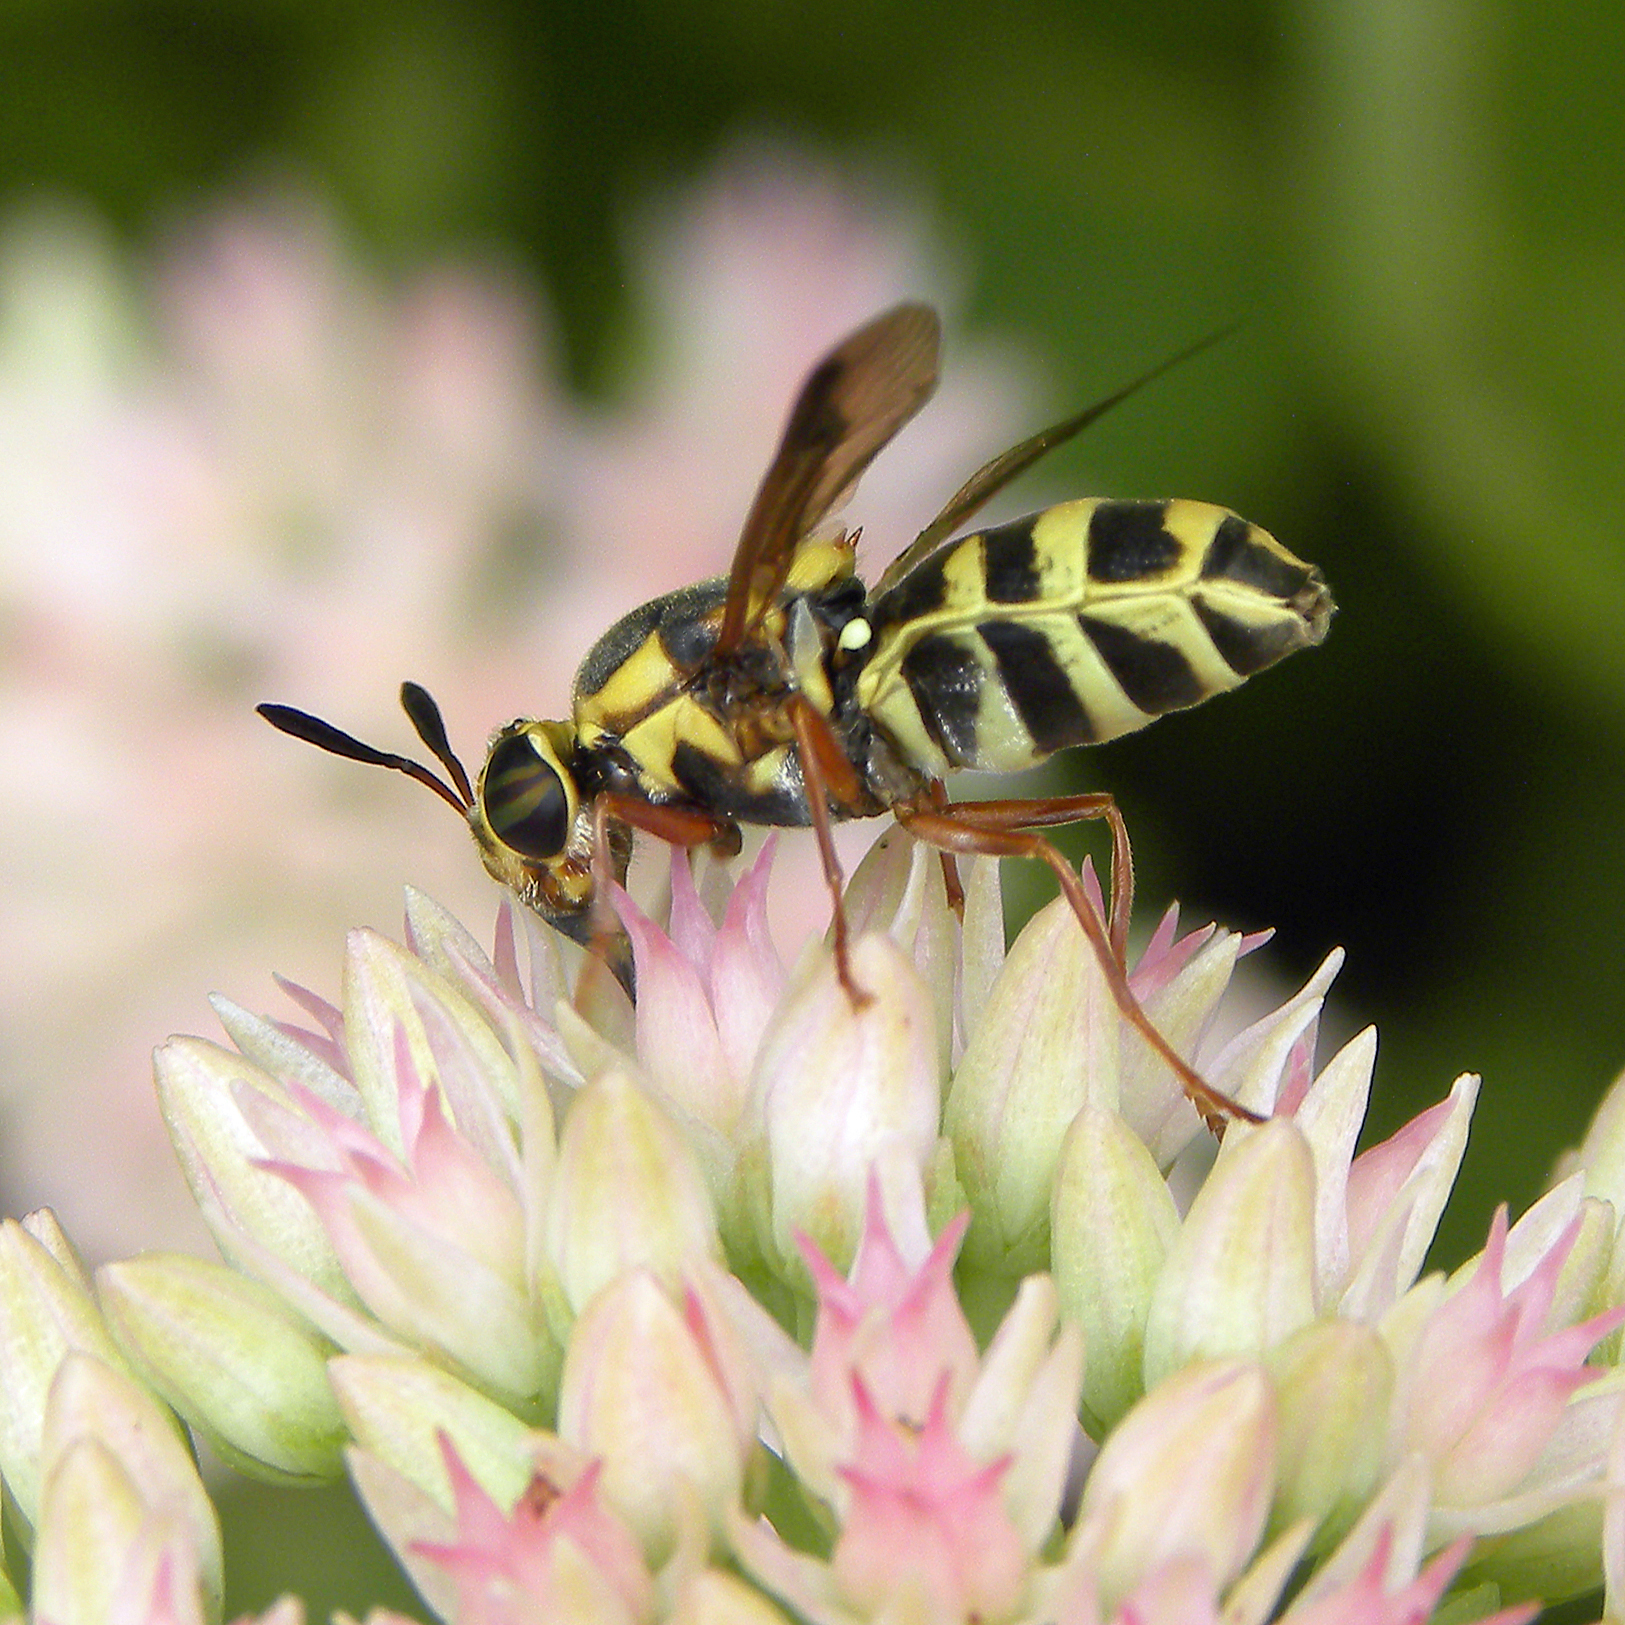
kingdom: Animalia
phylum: Arthropoda
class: Insecta
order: Diptera
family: Stratiomyidae
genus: Hoplitimyia
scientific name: Hoplitimyia constans
